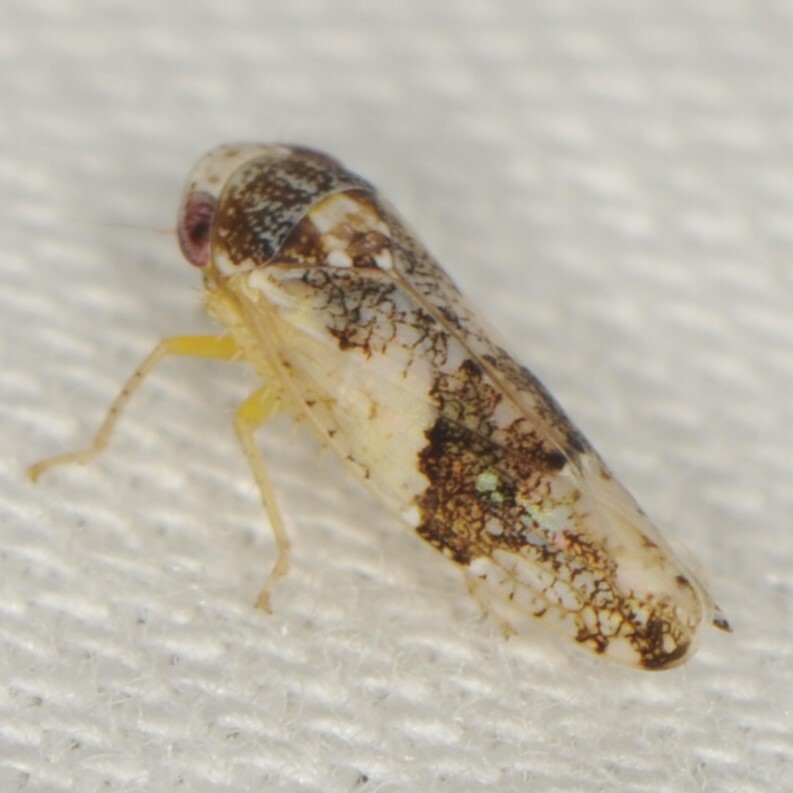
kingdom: Animalia
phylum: Arthropoda
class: Insecta
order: Hemiptera
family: Cicadellidae
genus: Norvellina
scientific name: Norvellina scitula
